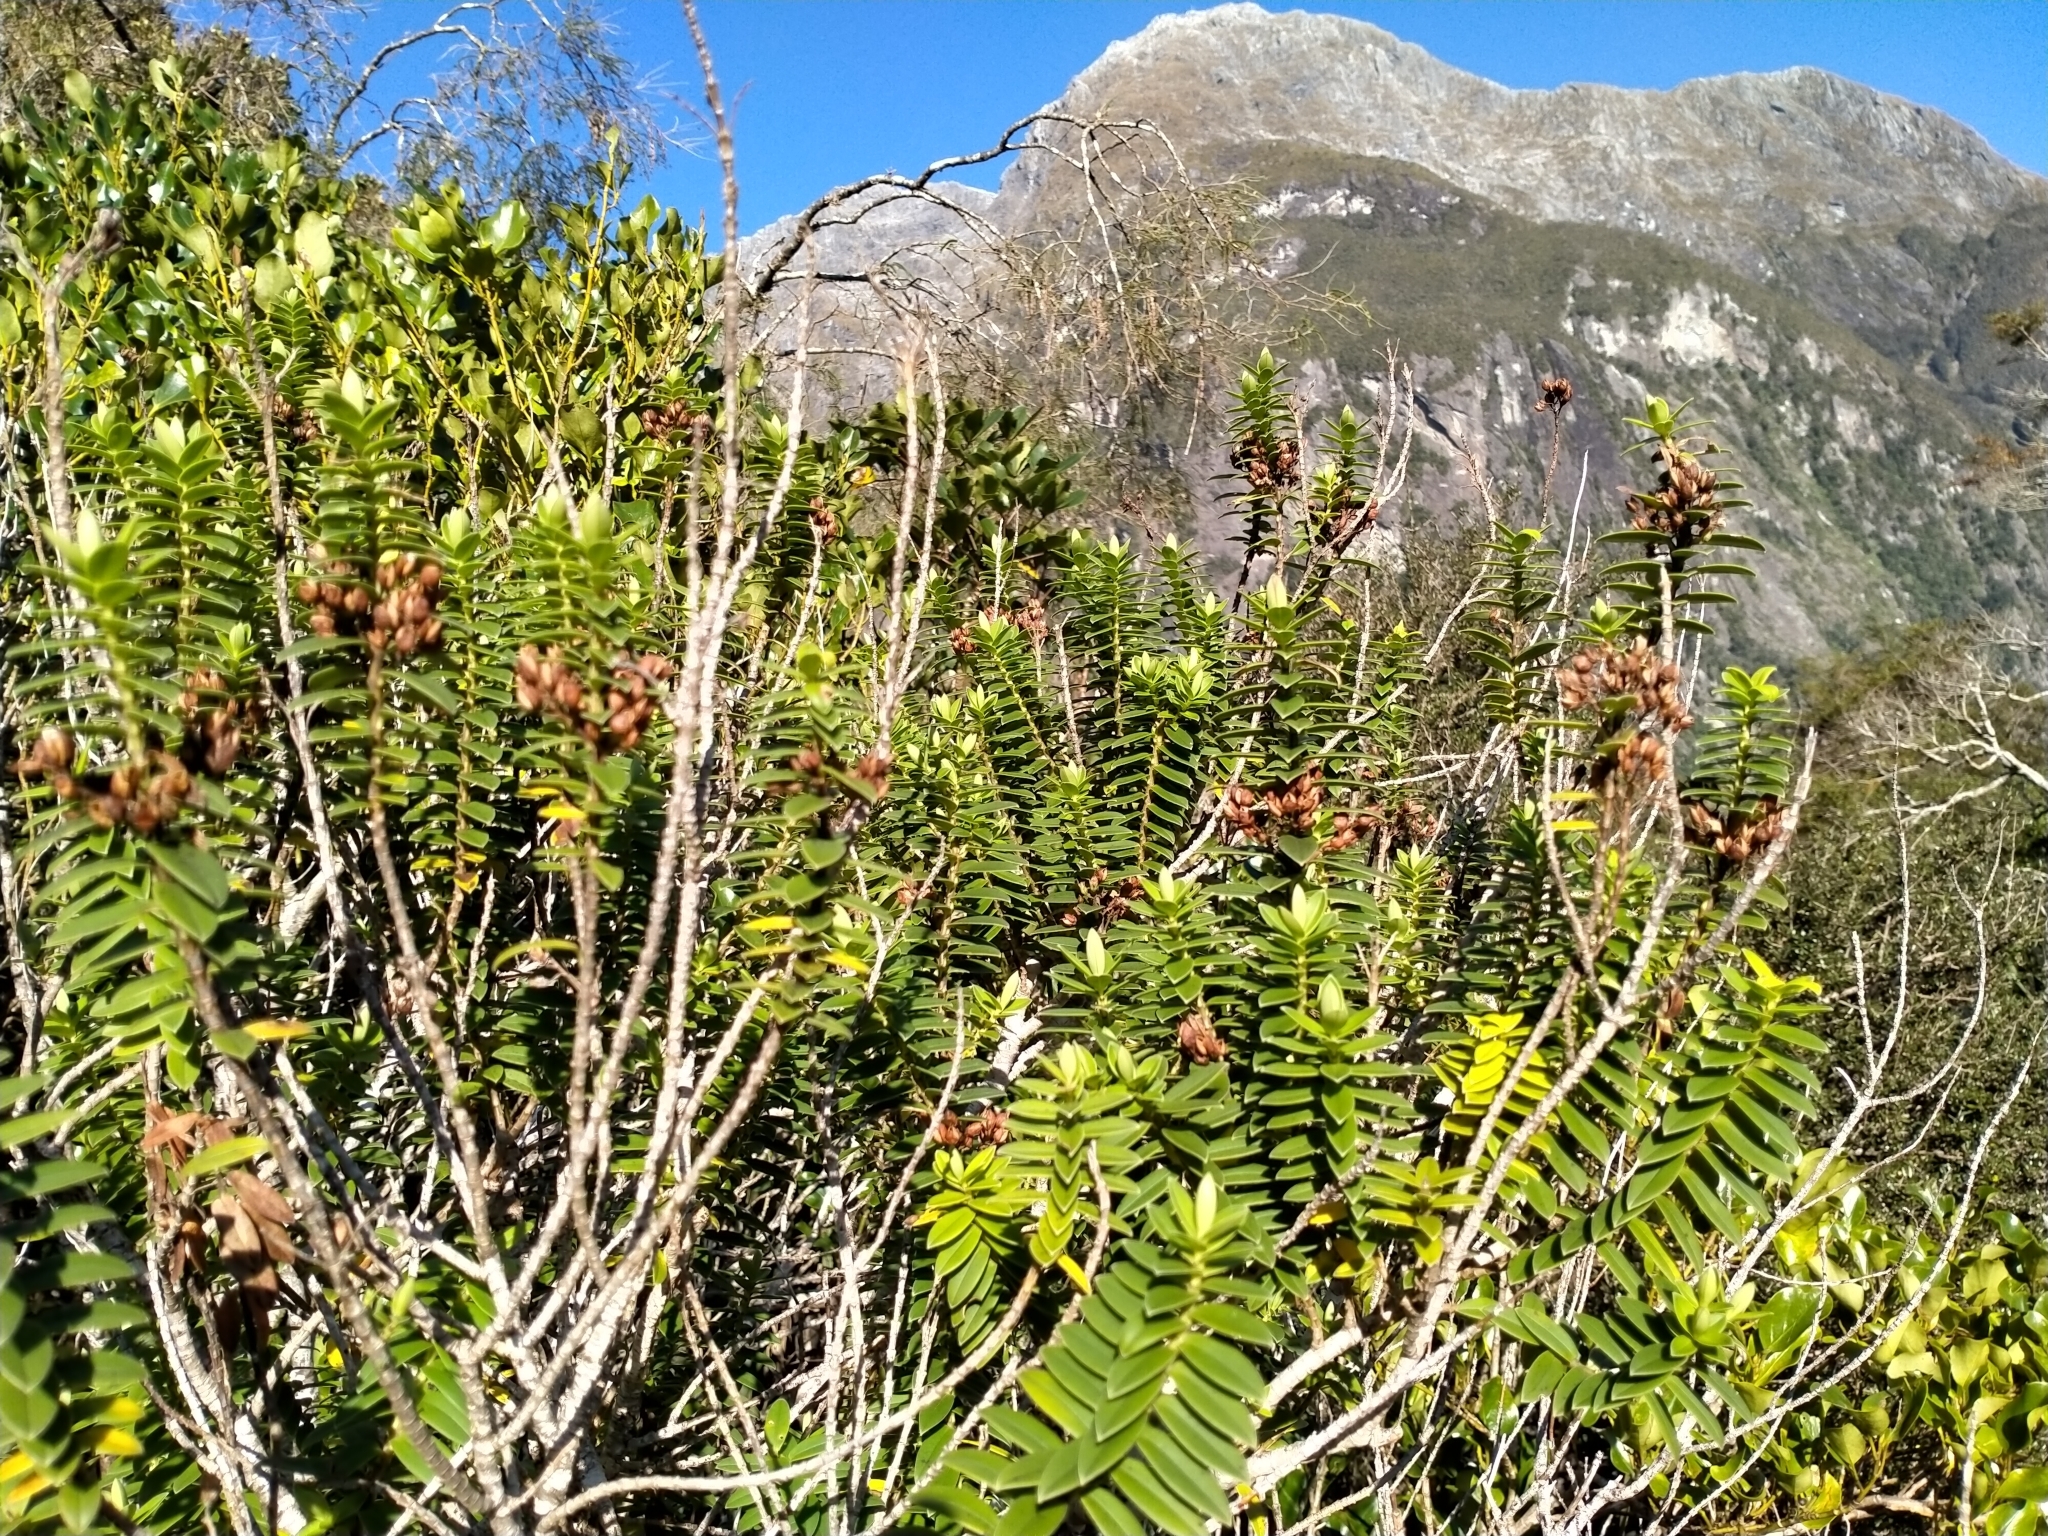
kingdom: Plantae
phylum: Tracheophyta
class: Magnoliopsida
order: Lamiales
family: Plantaginaceae
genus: Veronica
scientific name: Veronica elliptica
